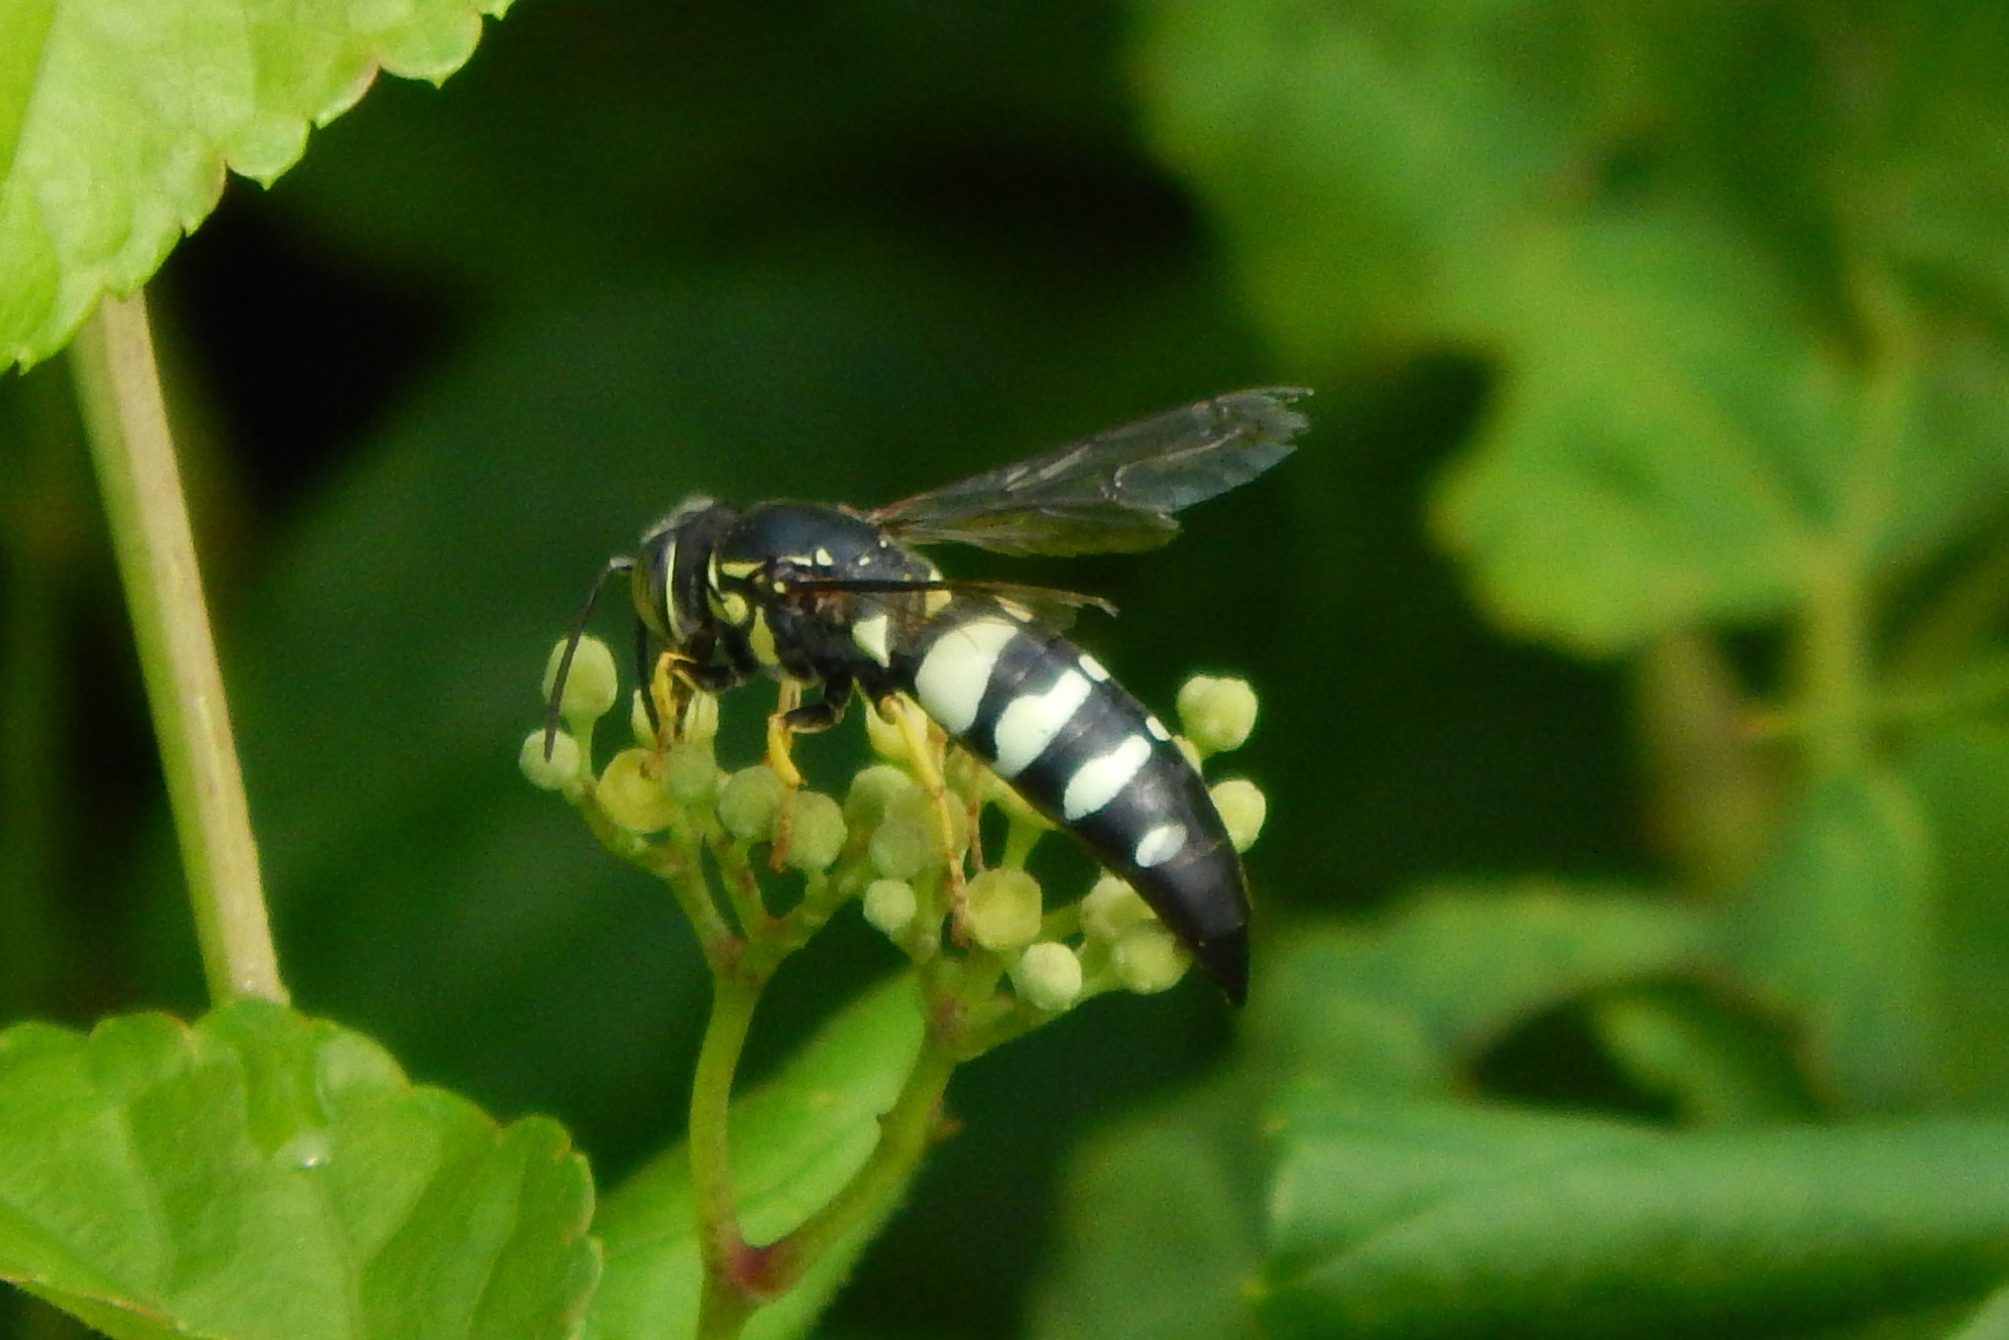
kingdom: Animalia
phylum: Arthropoda
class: Insecta
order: Hymenoptera
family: Crabronidae
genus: Bicyrtes
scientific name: Bicyrtes quadrifasciatus
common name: Four-banded stink bug hunter wasp
